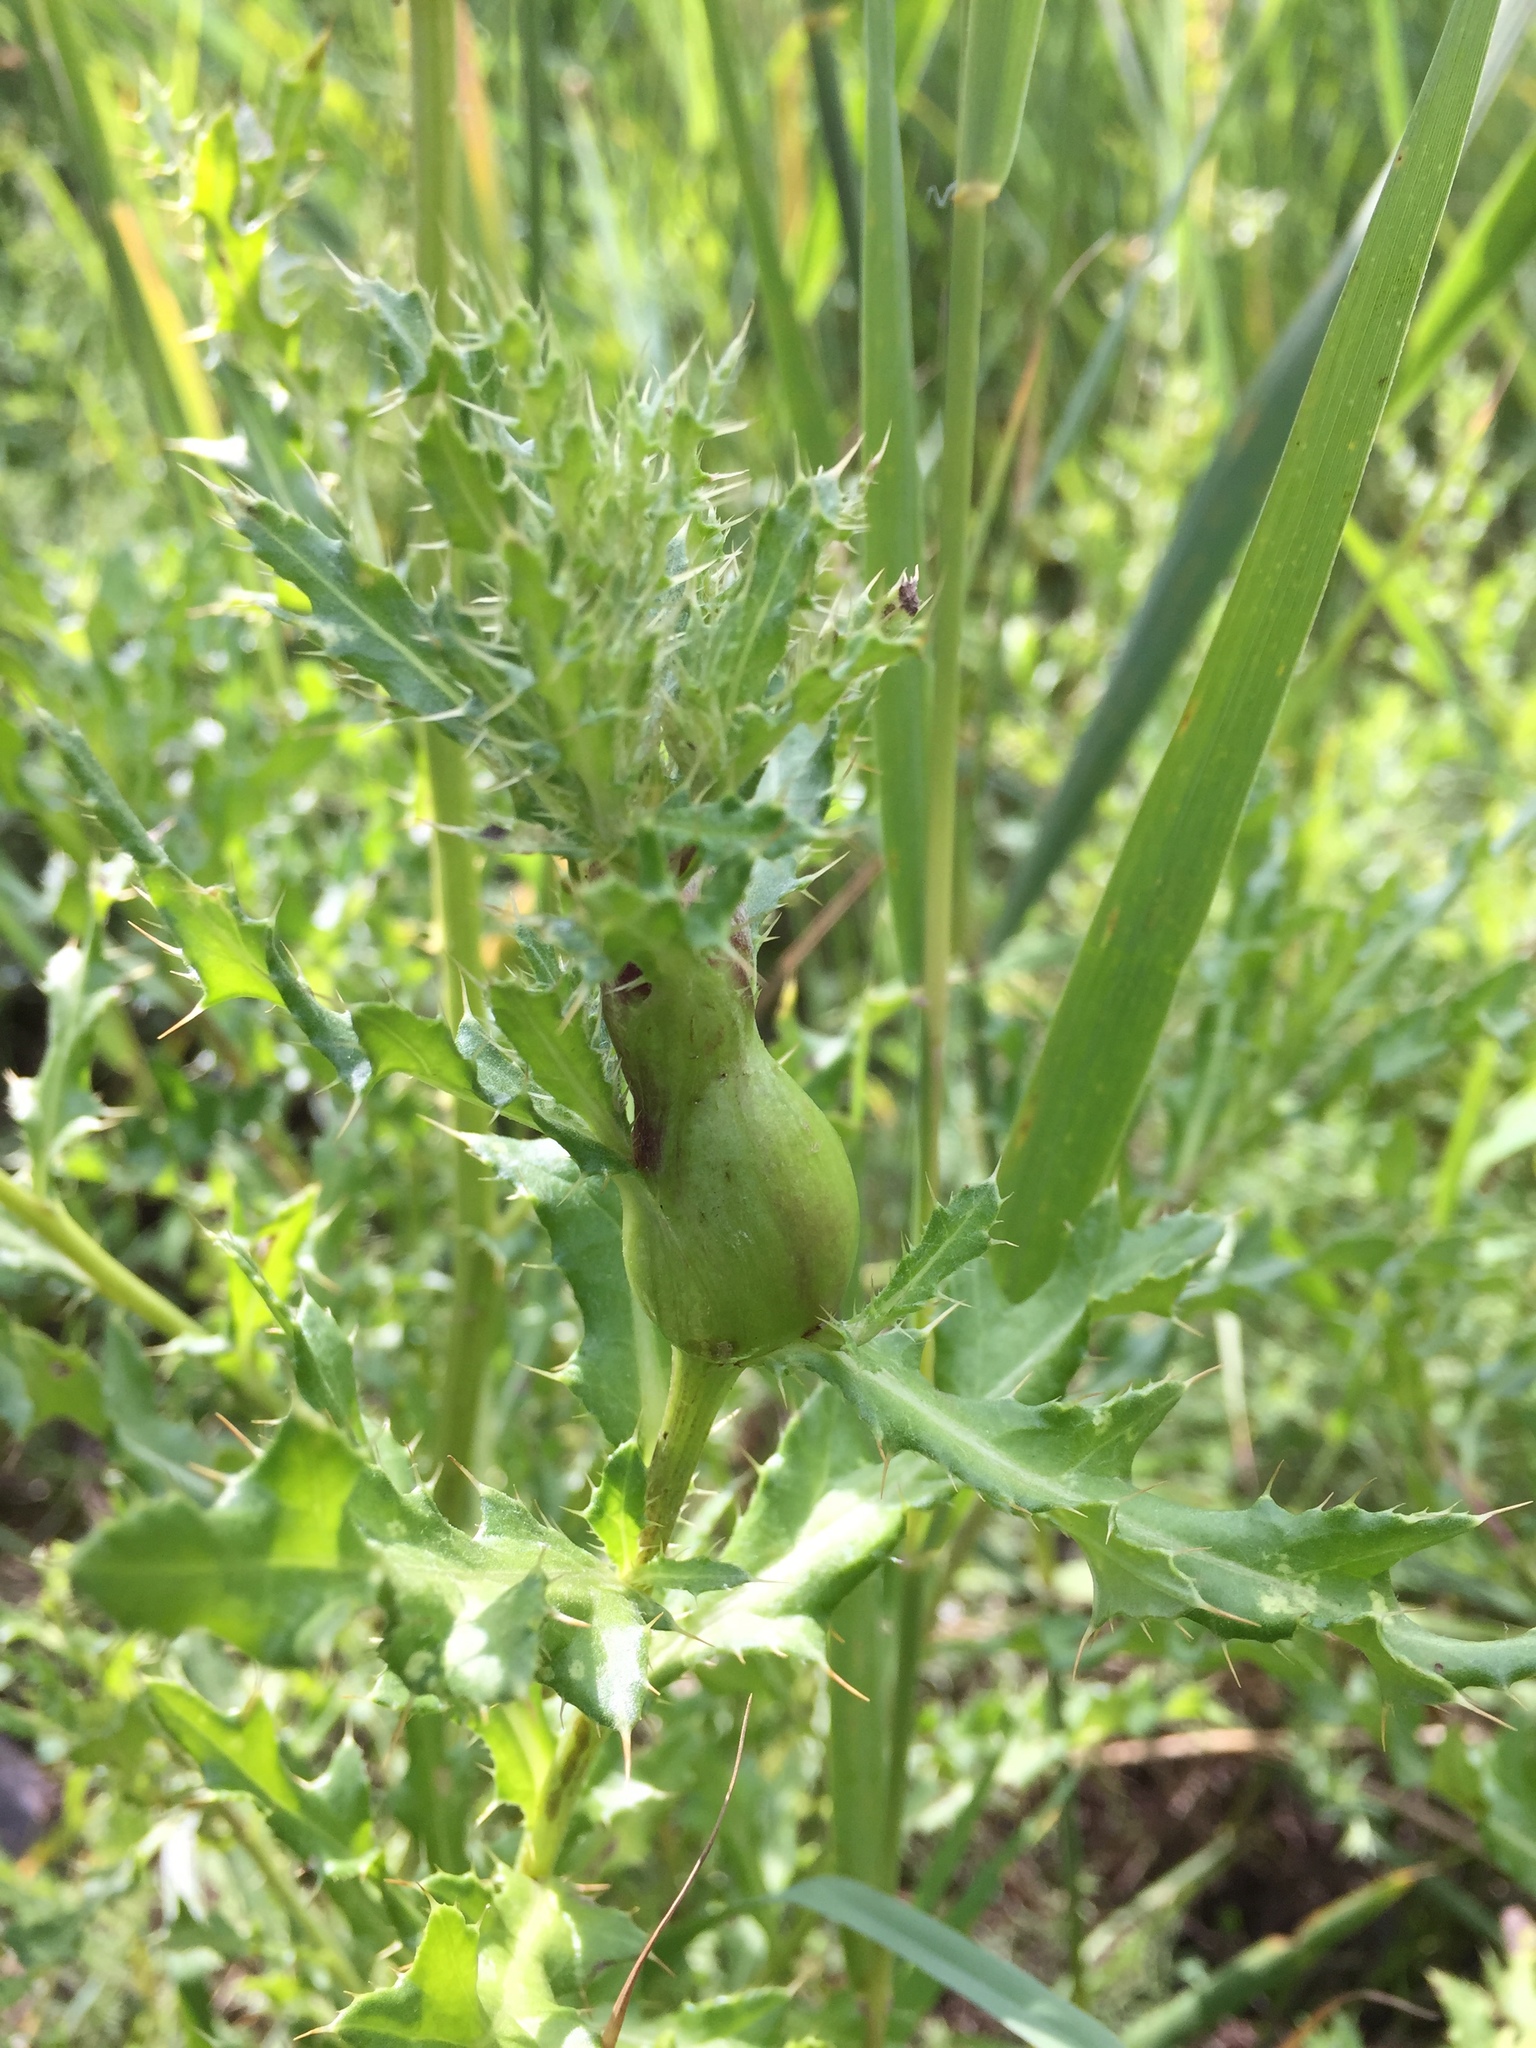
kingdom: Animalia
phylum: Arthropoda
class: Insecta
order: Diptera
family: Tephritidae
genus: Urophora
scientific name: Urophora cardui
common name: Fruit fly
